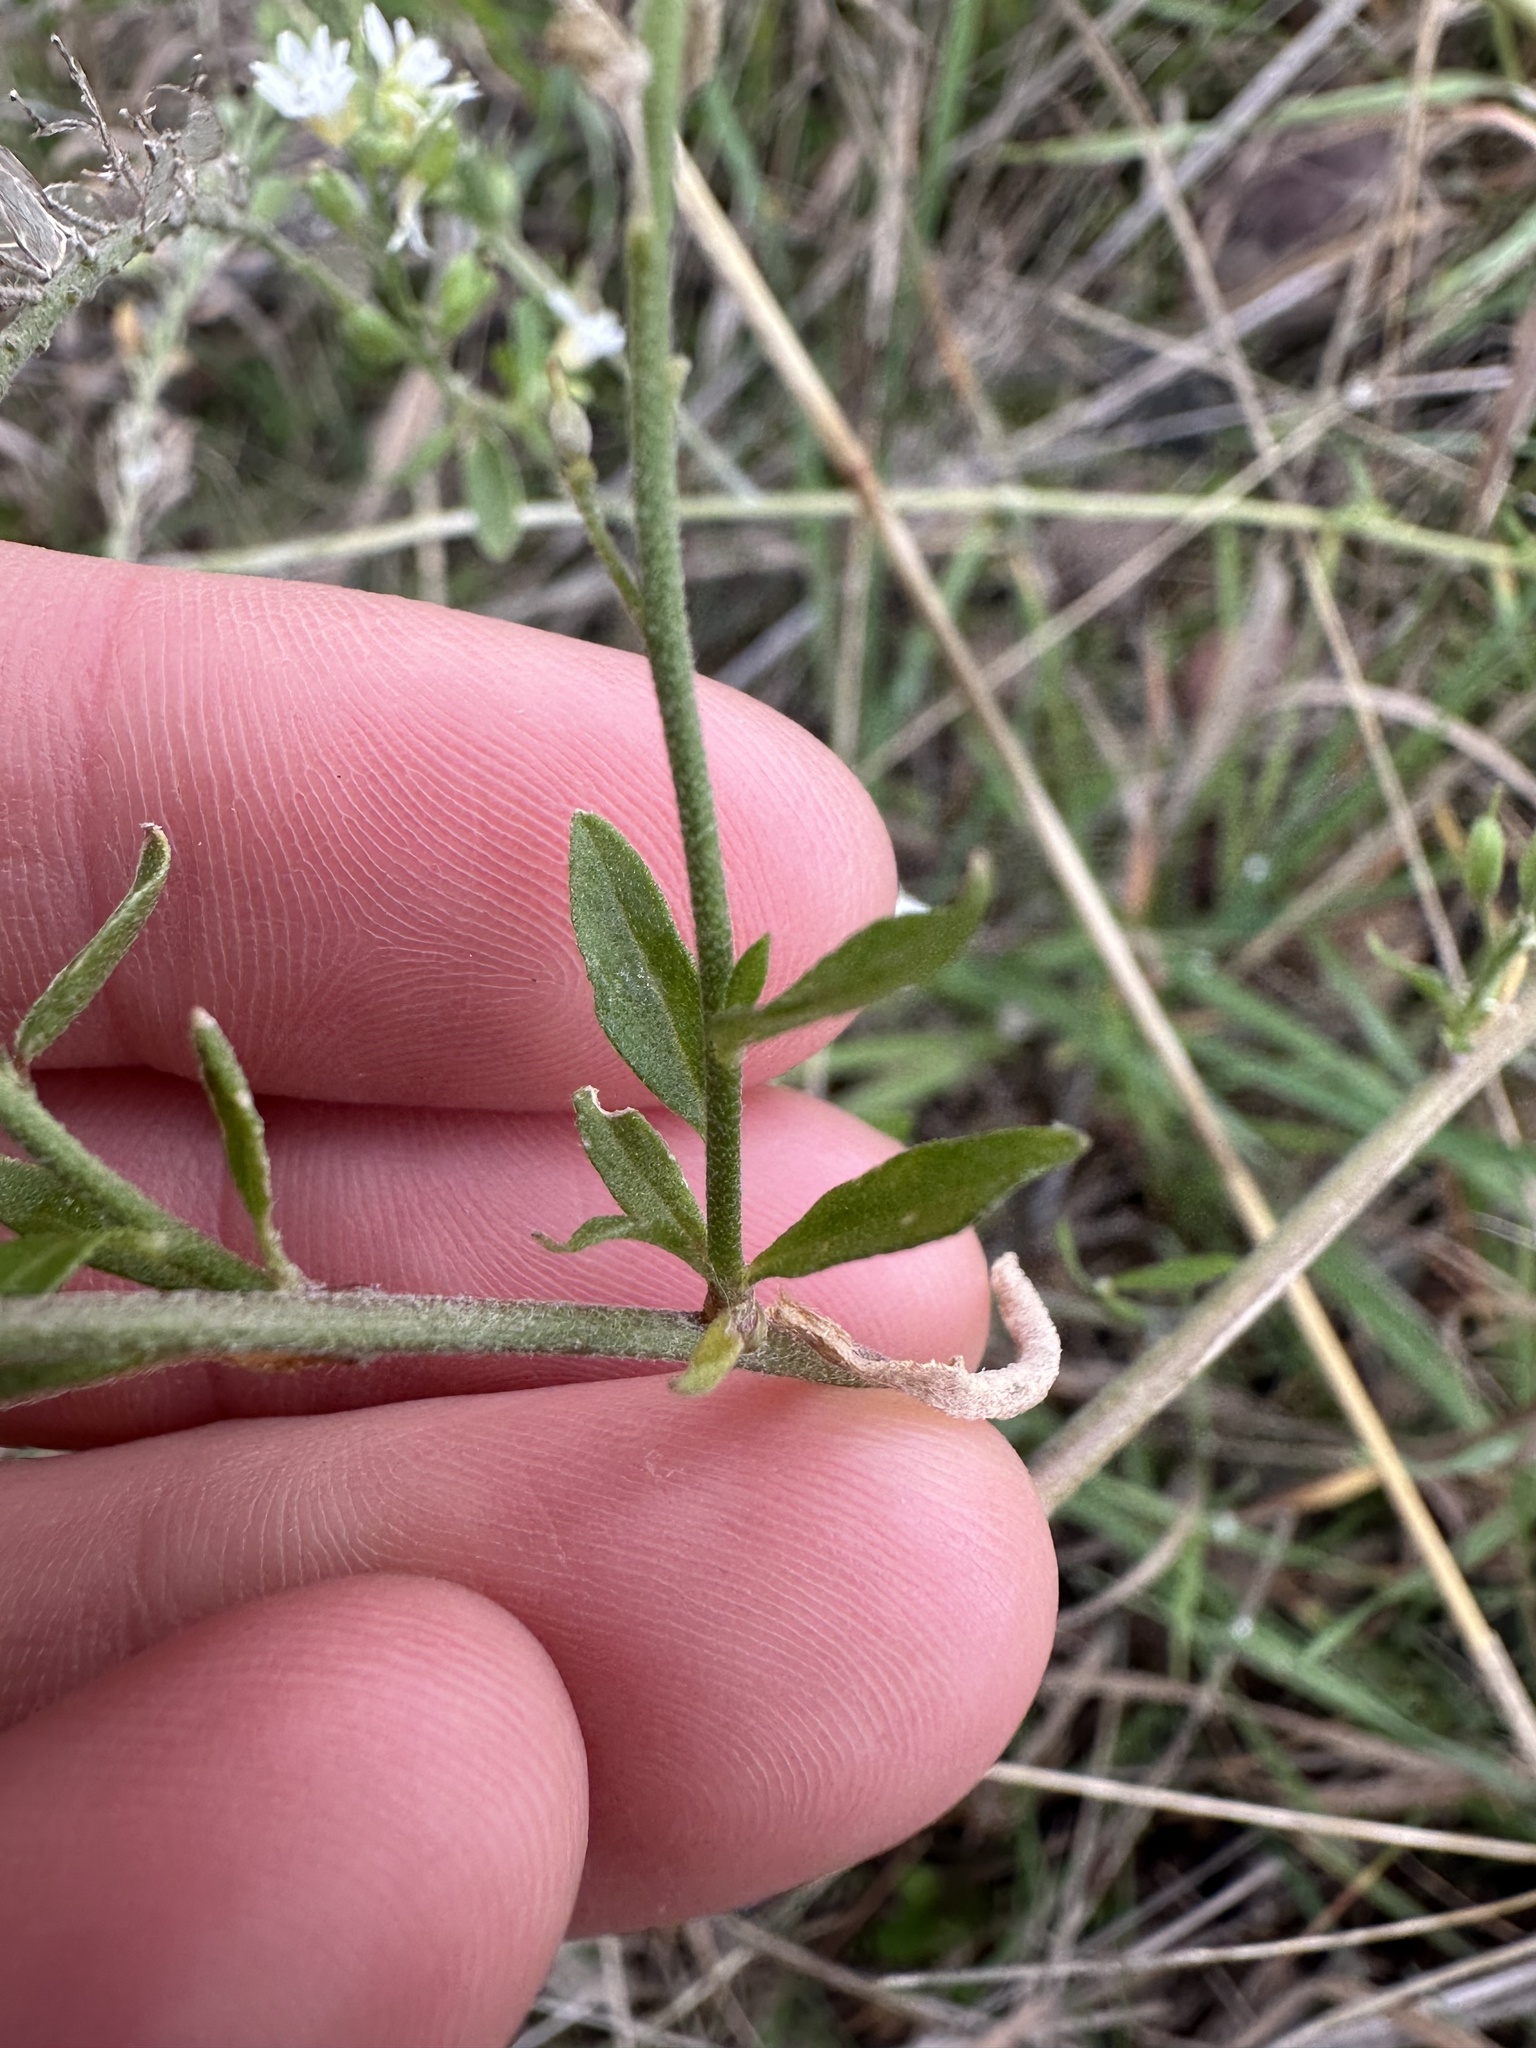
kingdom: Plantae
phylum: Tracheophyta
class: Magnoliopsida
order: Brassicales
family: Brassicaceae
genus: Berteroa
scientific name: Berteroa incana
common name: Hoary alison
